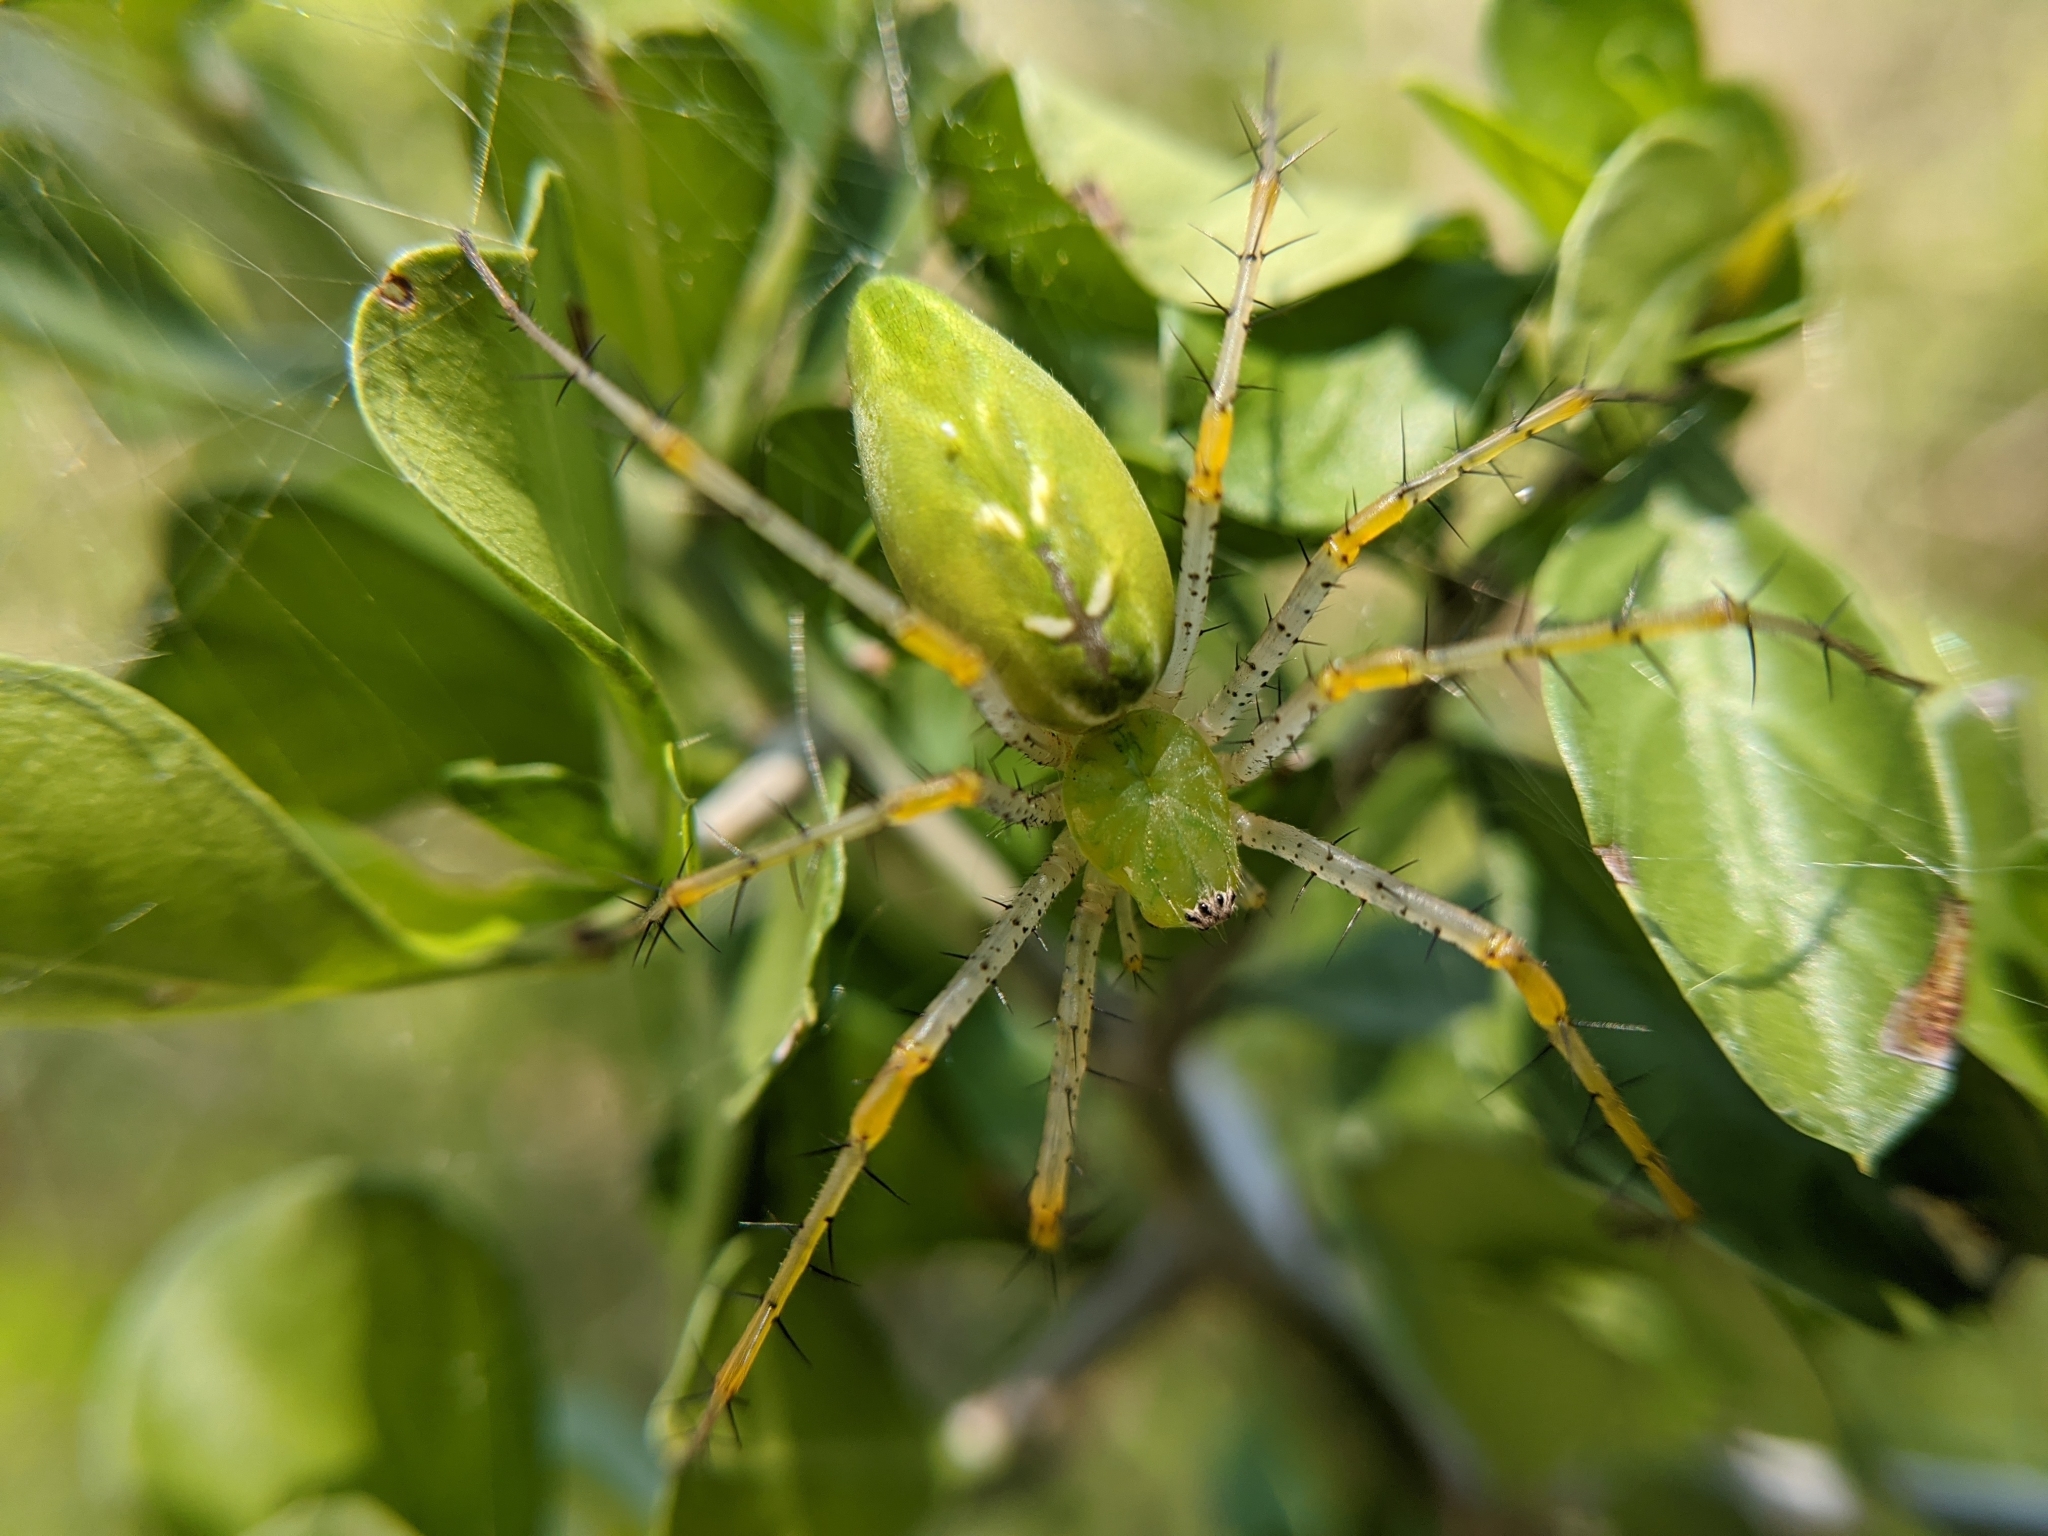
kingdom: Animalia
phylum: Arthropoda
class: Arachnida
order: Araneae
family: Oxyopidae
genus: Peucetia
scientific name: Peucetia viridans
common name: Lynx spiders
